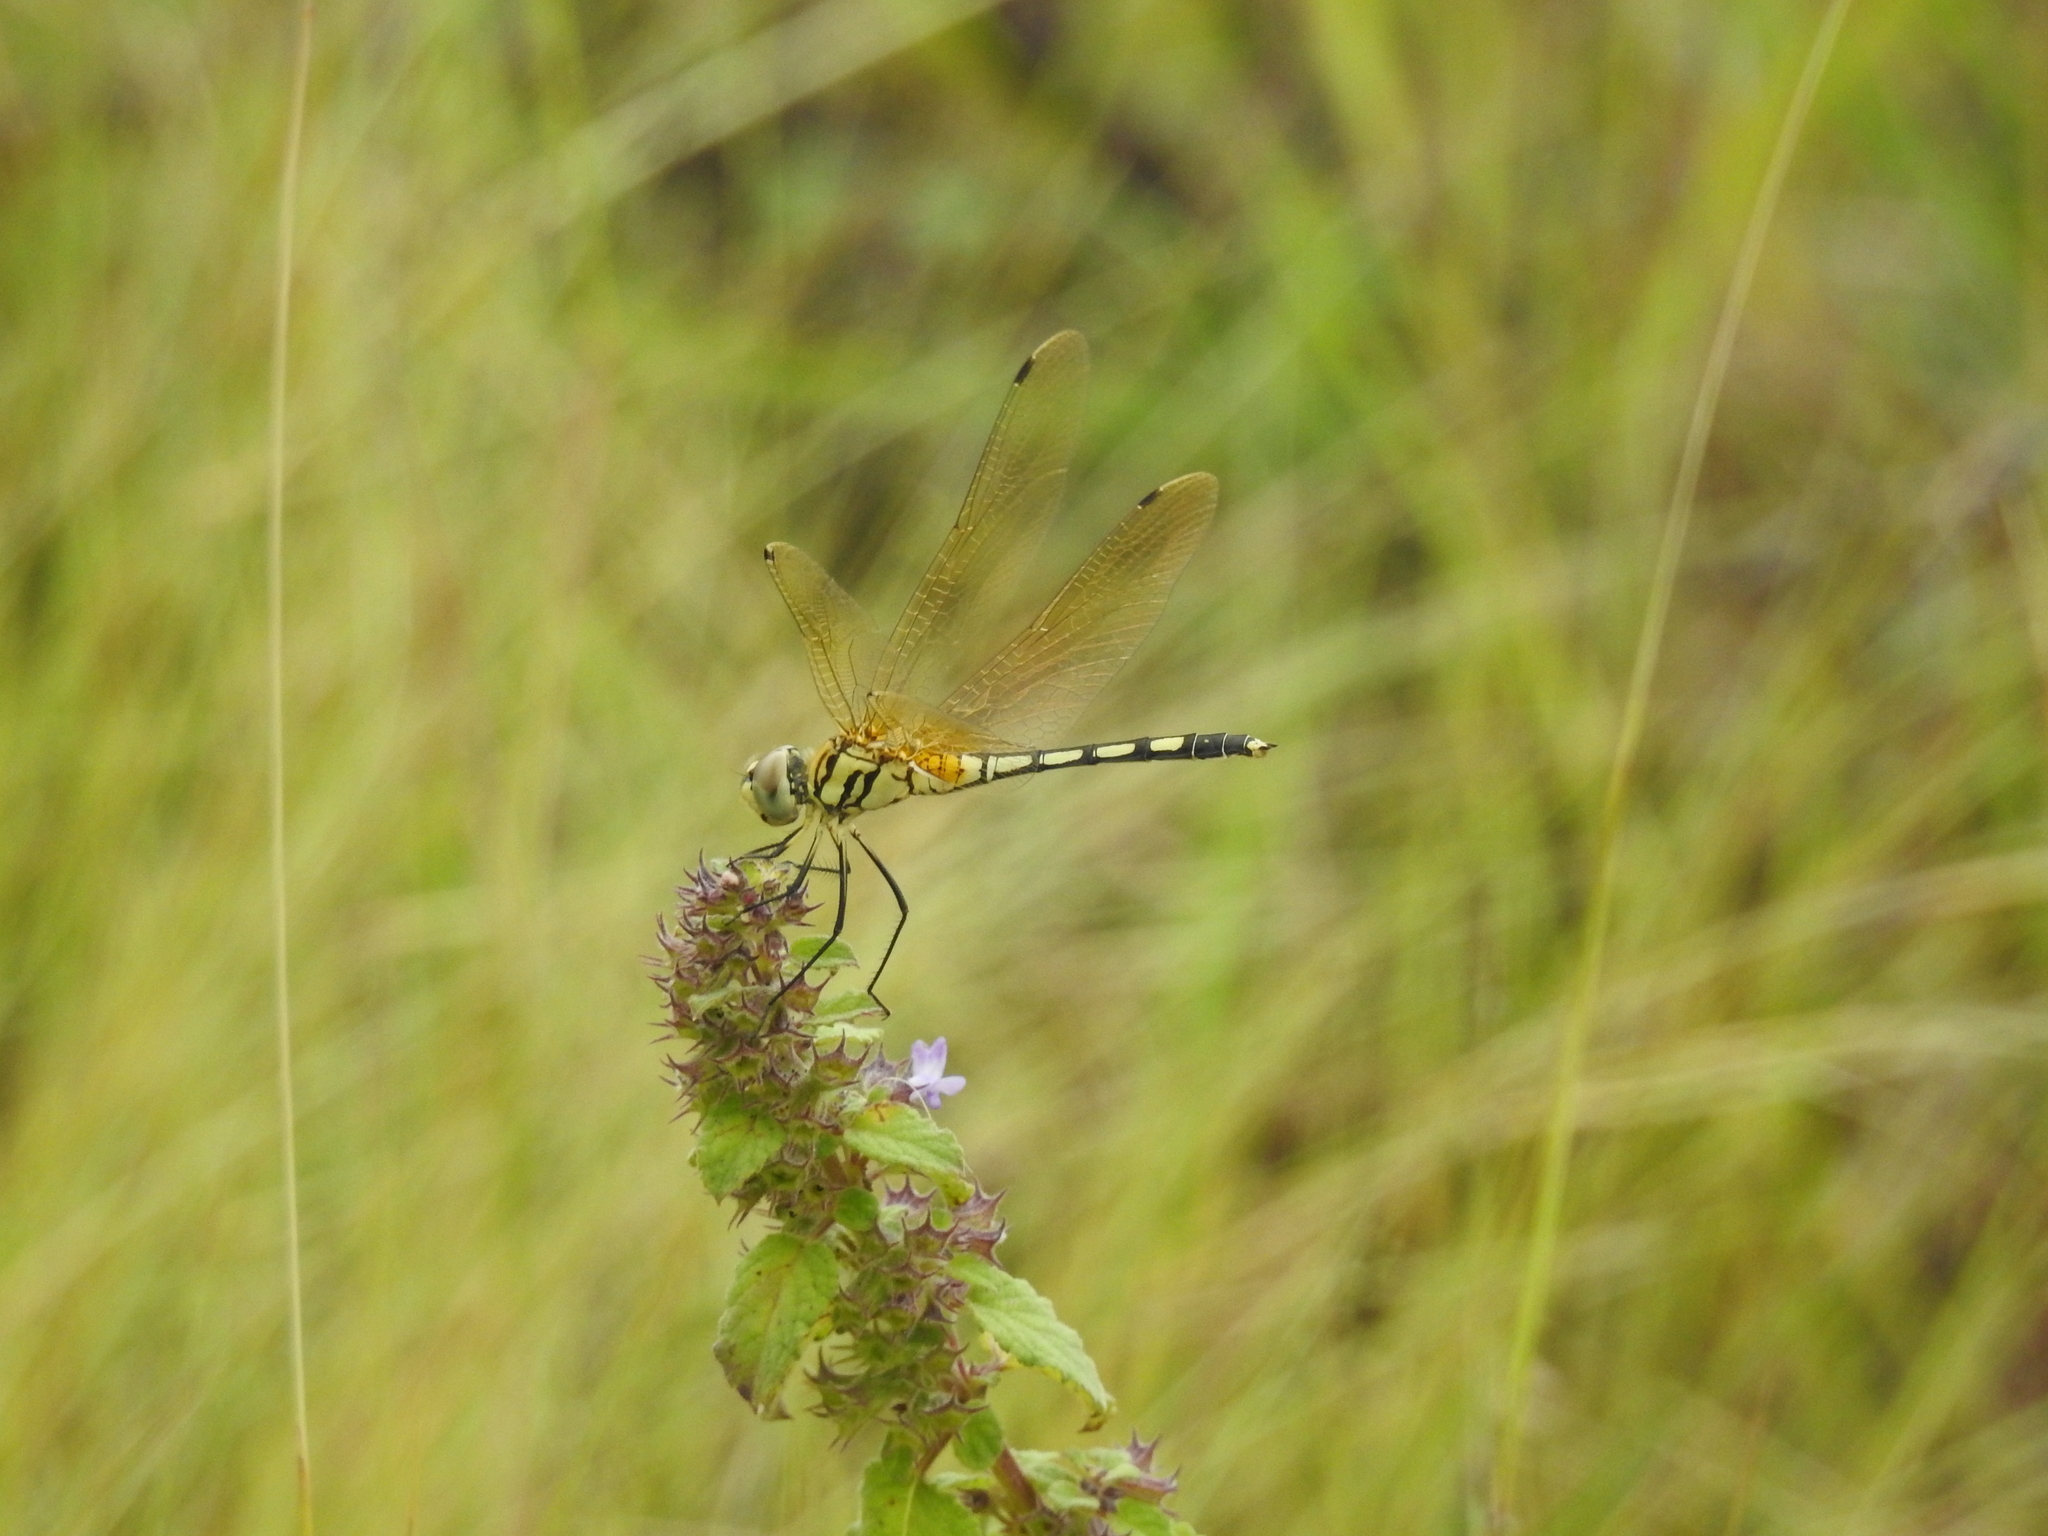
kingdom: Animalia
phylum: Arthropoda
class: Insecta
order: Odonata
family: Libellulidae
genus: Trithemis
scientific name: Trithemis pallidinervis
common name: Dancing dropwing
